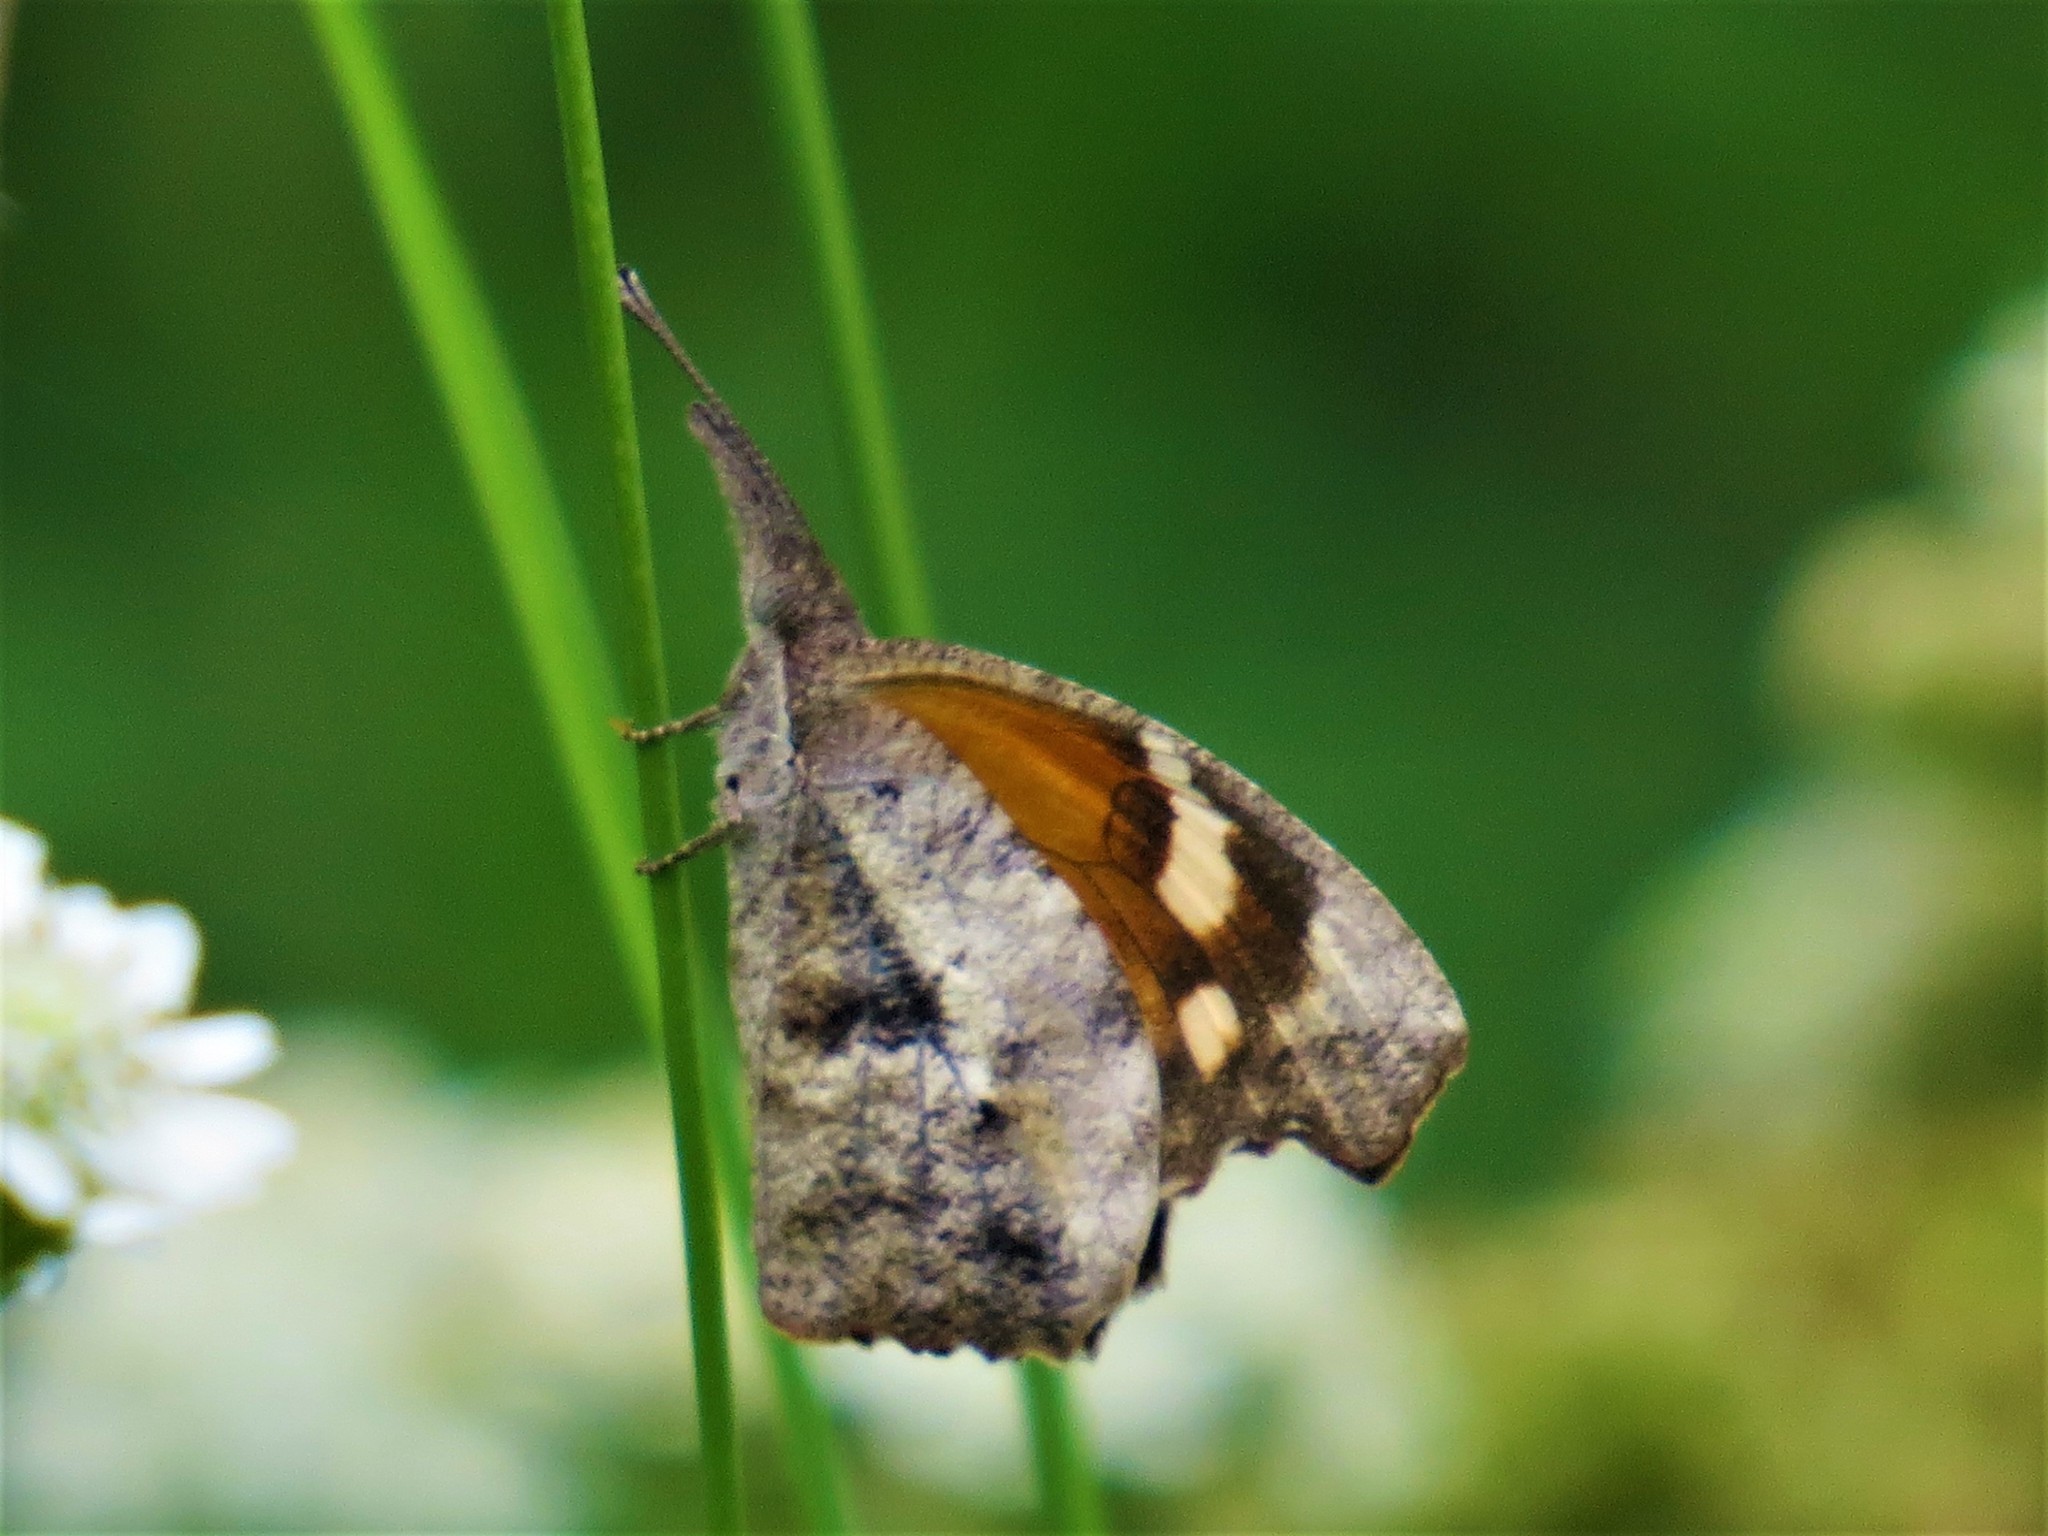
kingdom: Animalia
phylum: Arthropoda
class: Insecta
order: Lepidoptera
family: Nymphalidae
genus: Libytheana
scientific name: Libytheana carinenta
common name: American snout
